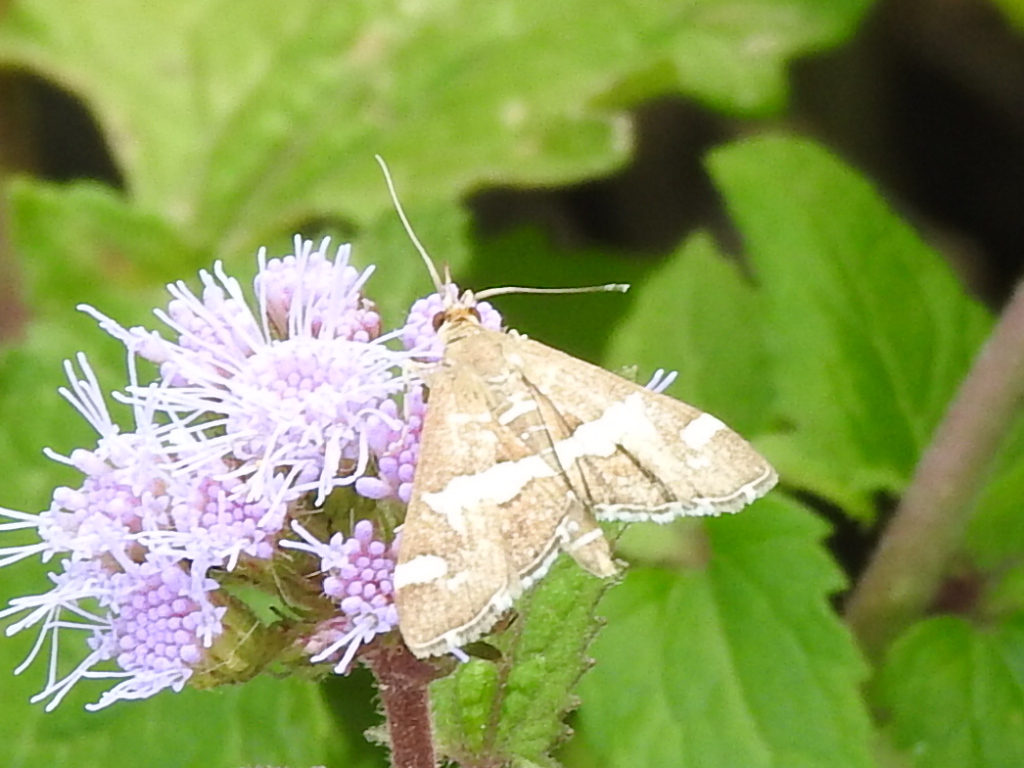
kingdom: Animalia
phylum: Arthropoda
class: Insecta
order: Lepidoptera
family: Crambidae
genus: Spoladea
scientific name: Spoladea recurvalis
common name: Beet webworm moth
